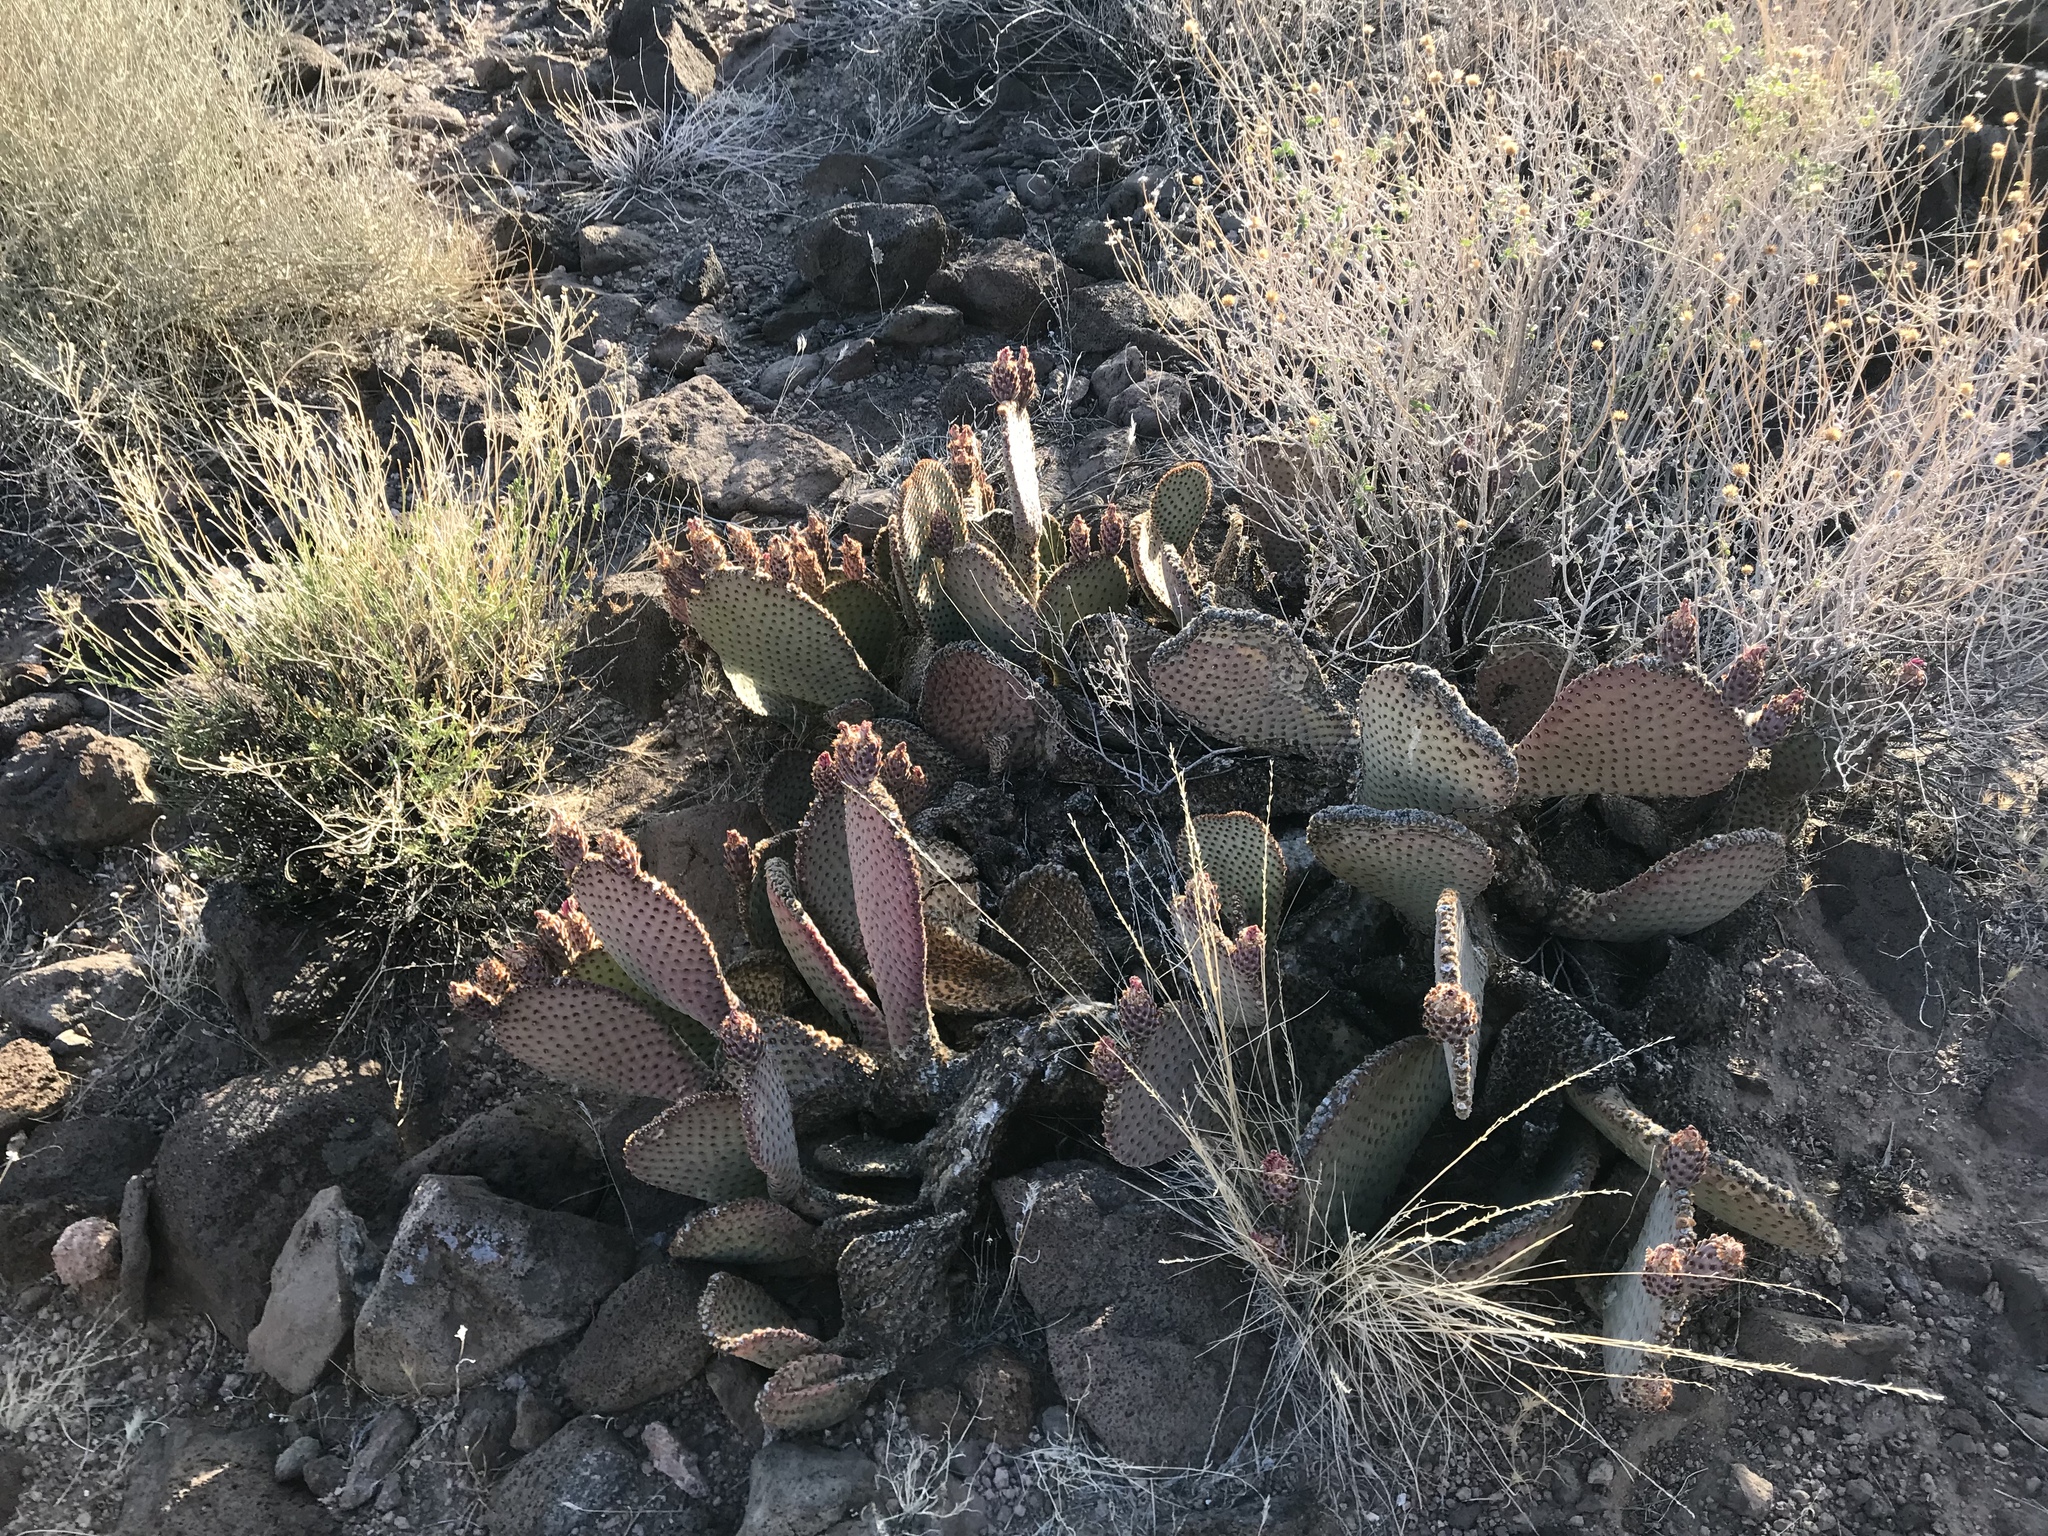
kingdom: Plantae
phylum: Tracheophyta
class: Magnoliopsida
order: Caryophyllales
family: Cactaceae
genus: Opuntia
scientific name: Opuntia basilaris
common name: Beavertail prickly-pear
